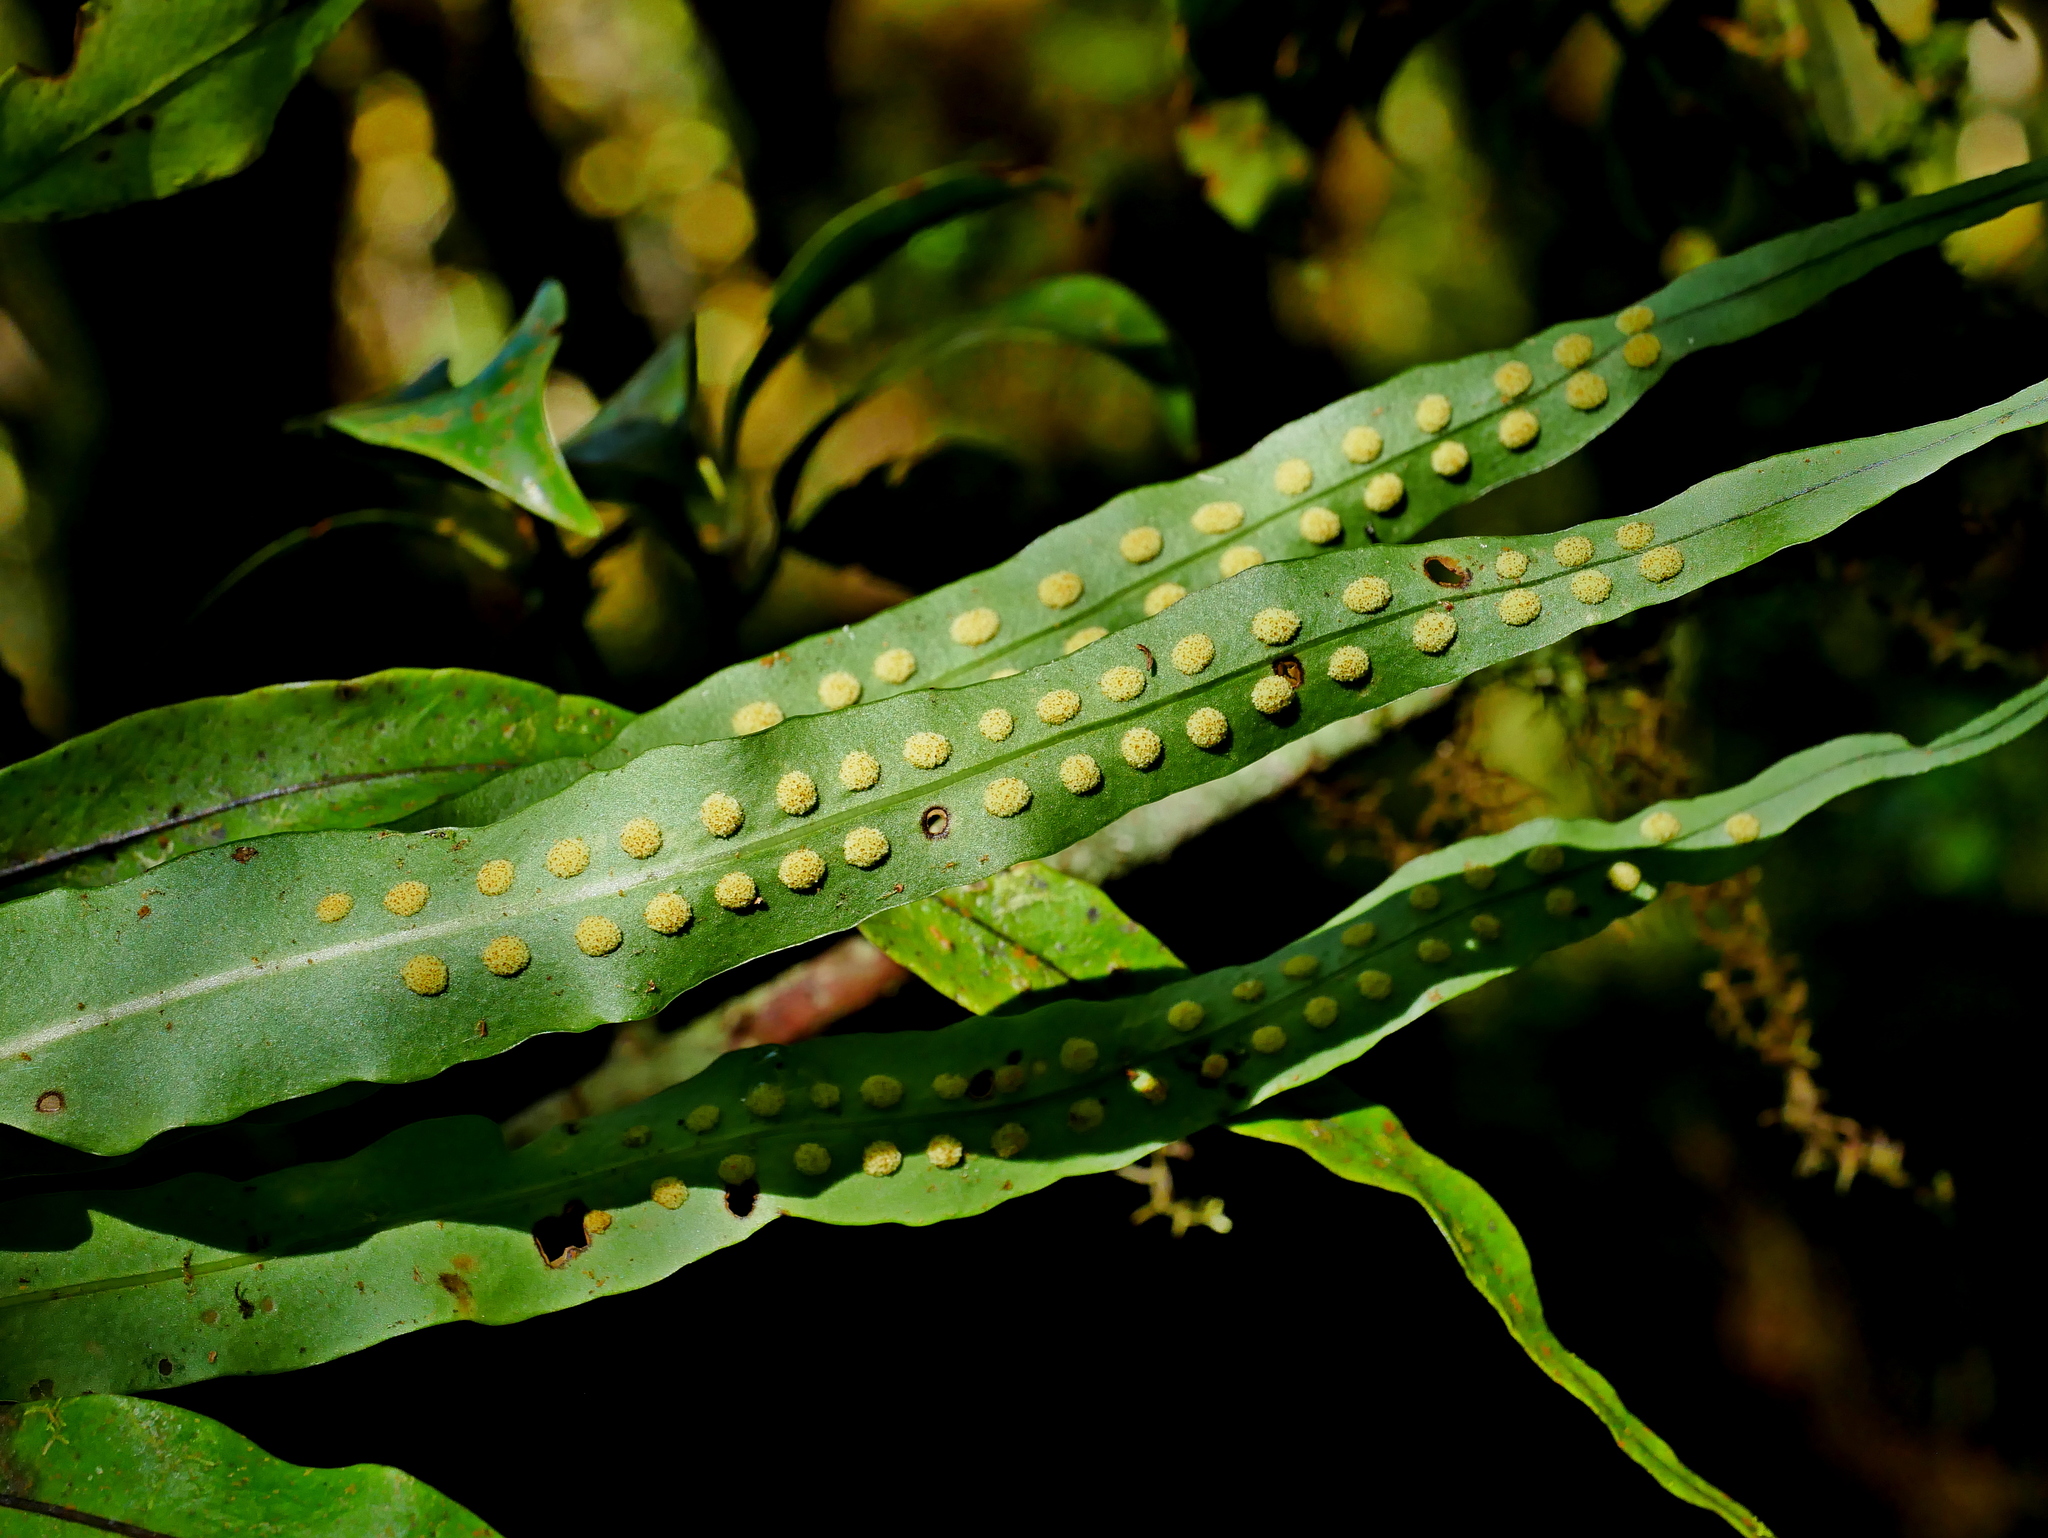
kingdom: Plantae
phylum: Tracheophyta
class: Polypodiopsida
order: Polypodiales
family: Polypodiaceae
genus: Lepisorus
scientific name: Lepisorus kawakamii
